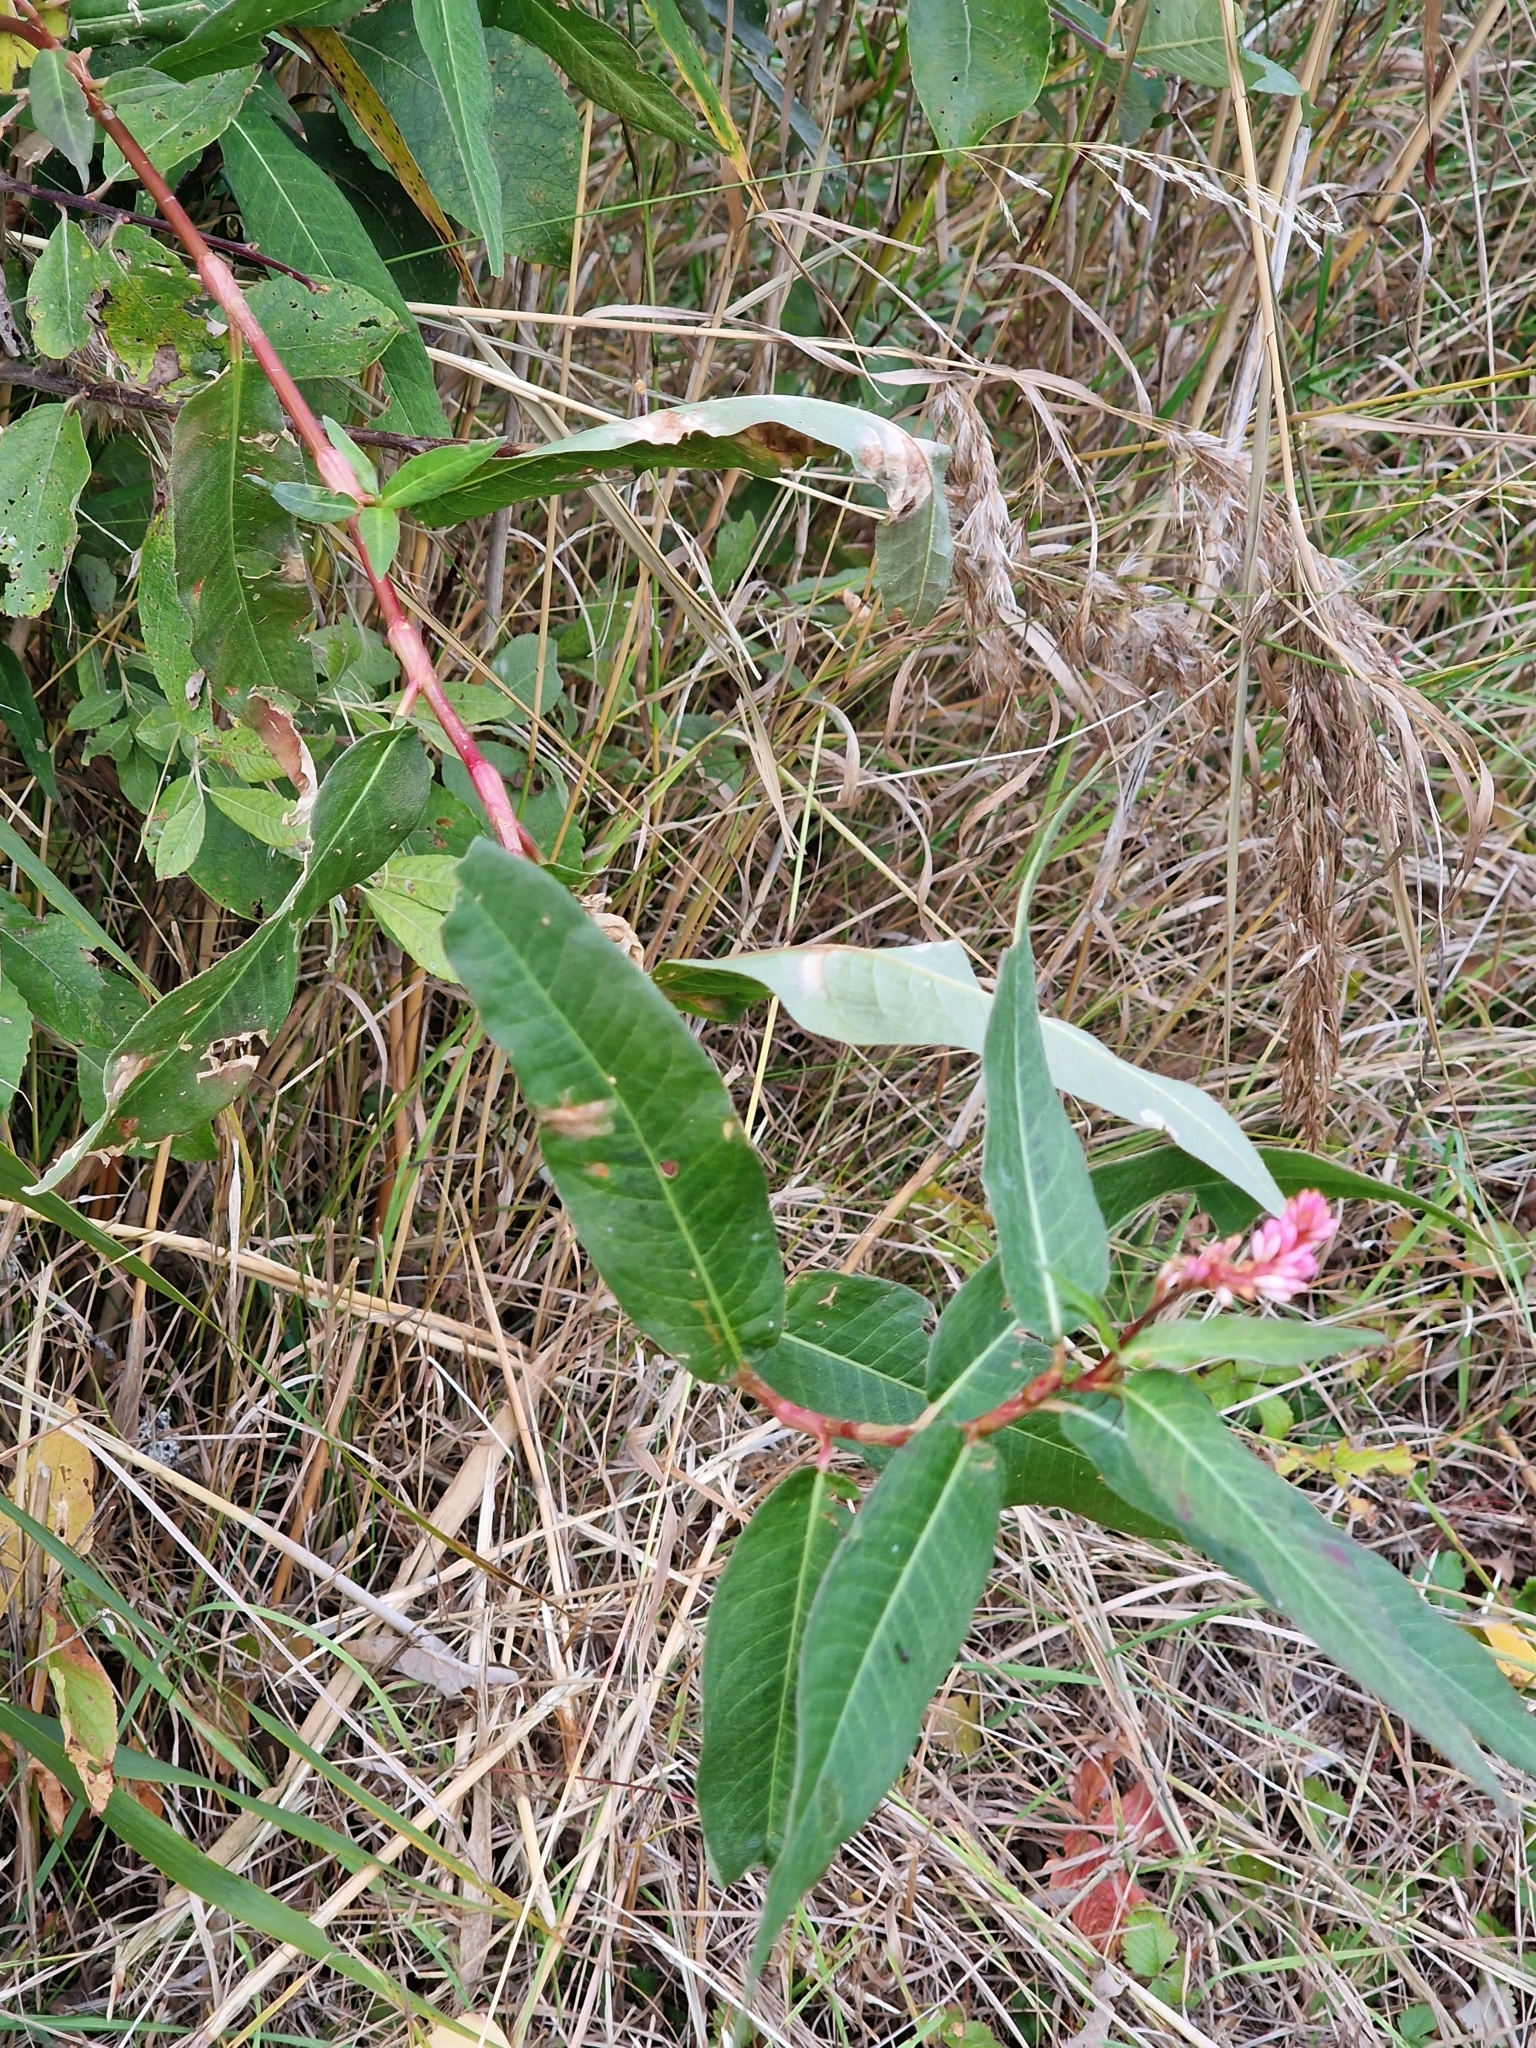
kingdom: Plantae
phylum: Tracheophyta
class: Magnoliopsida
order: Caryophyllales
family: Polygonaceae
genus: Persicaria
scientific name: Persicaria amphibia
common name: Amphibious bistort
